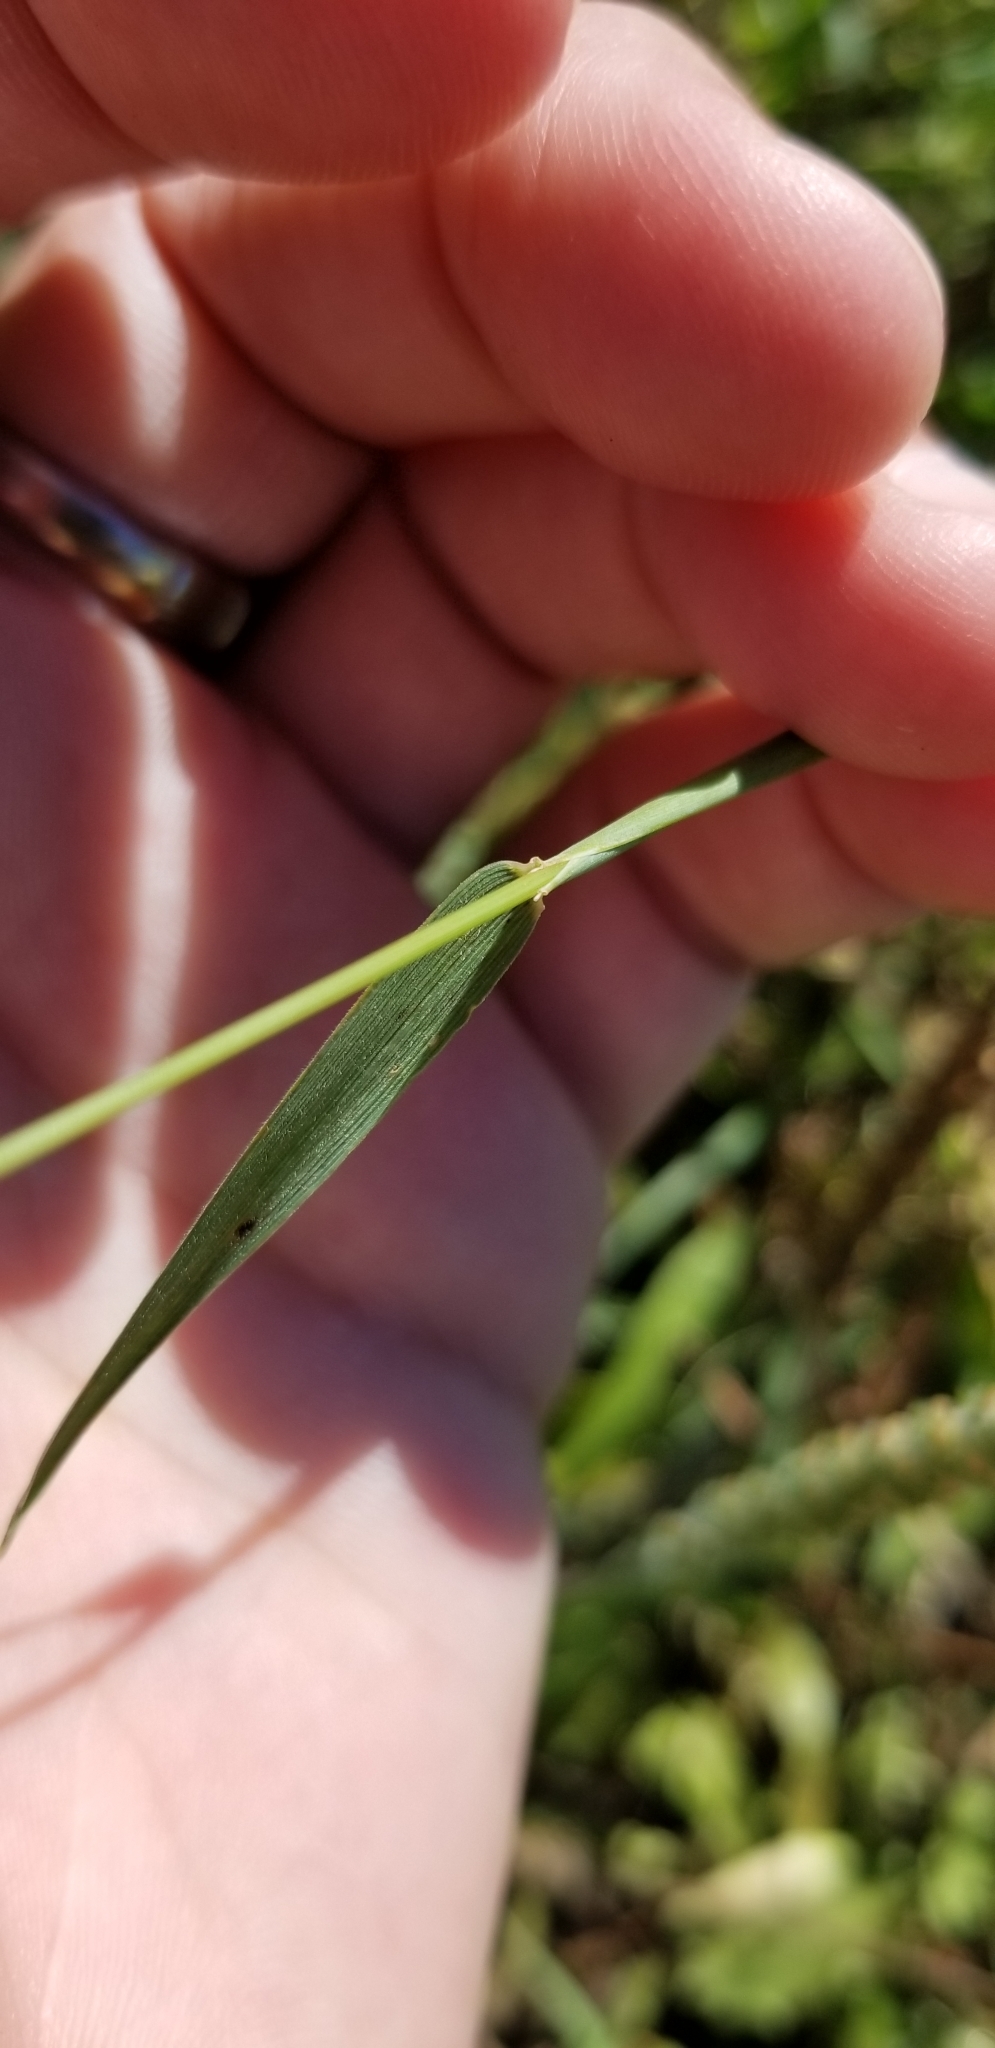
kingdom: Plantae
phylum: Tracheophyta
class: Liliopsida
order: Poales
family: Poaceae
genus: Hordeum
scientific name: Hordeum pusillum
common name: Little barley
